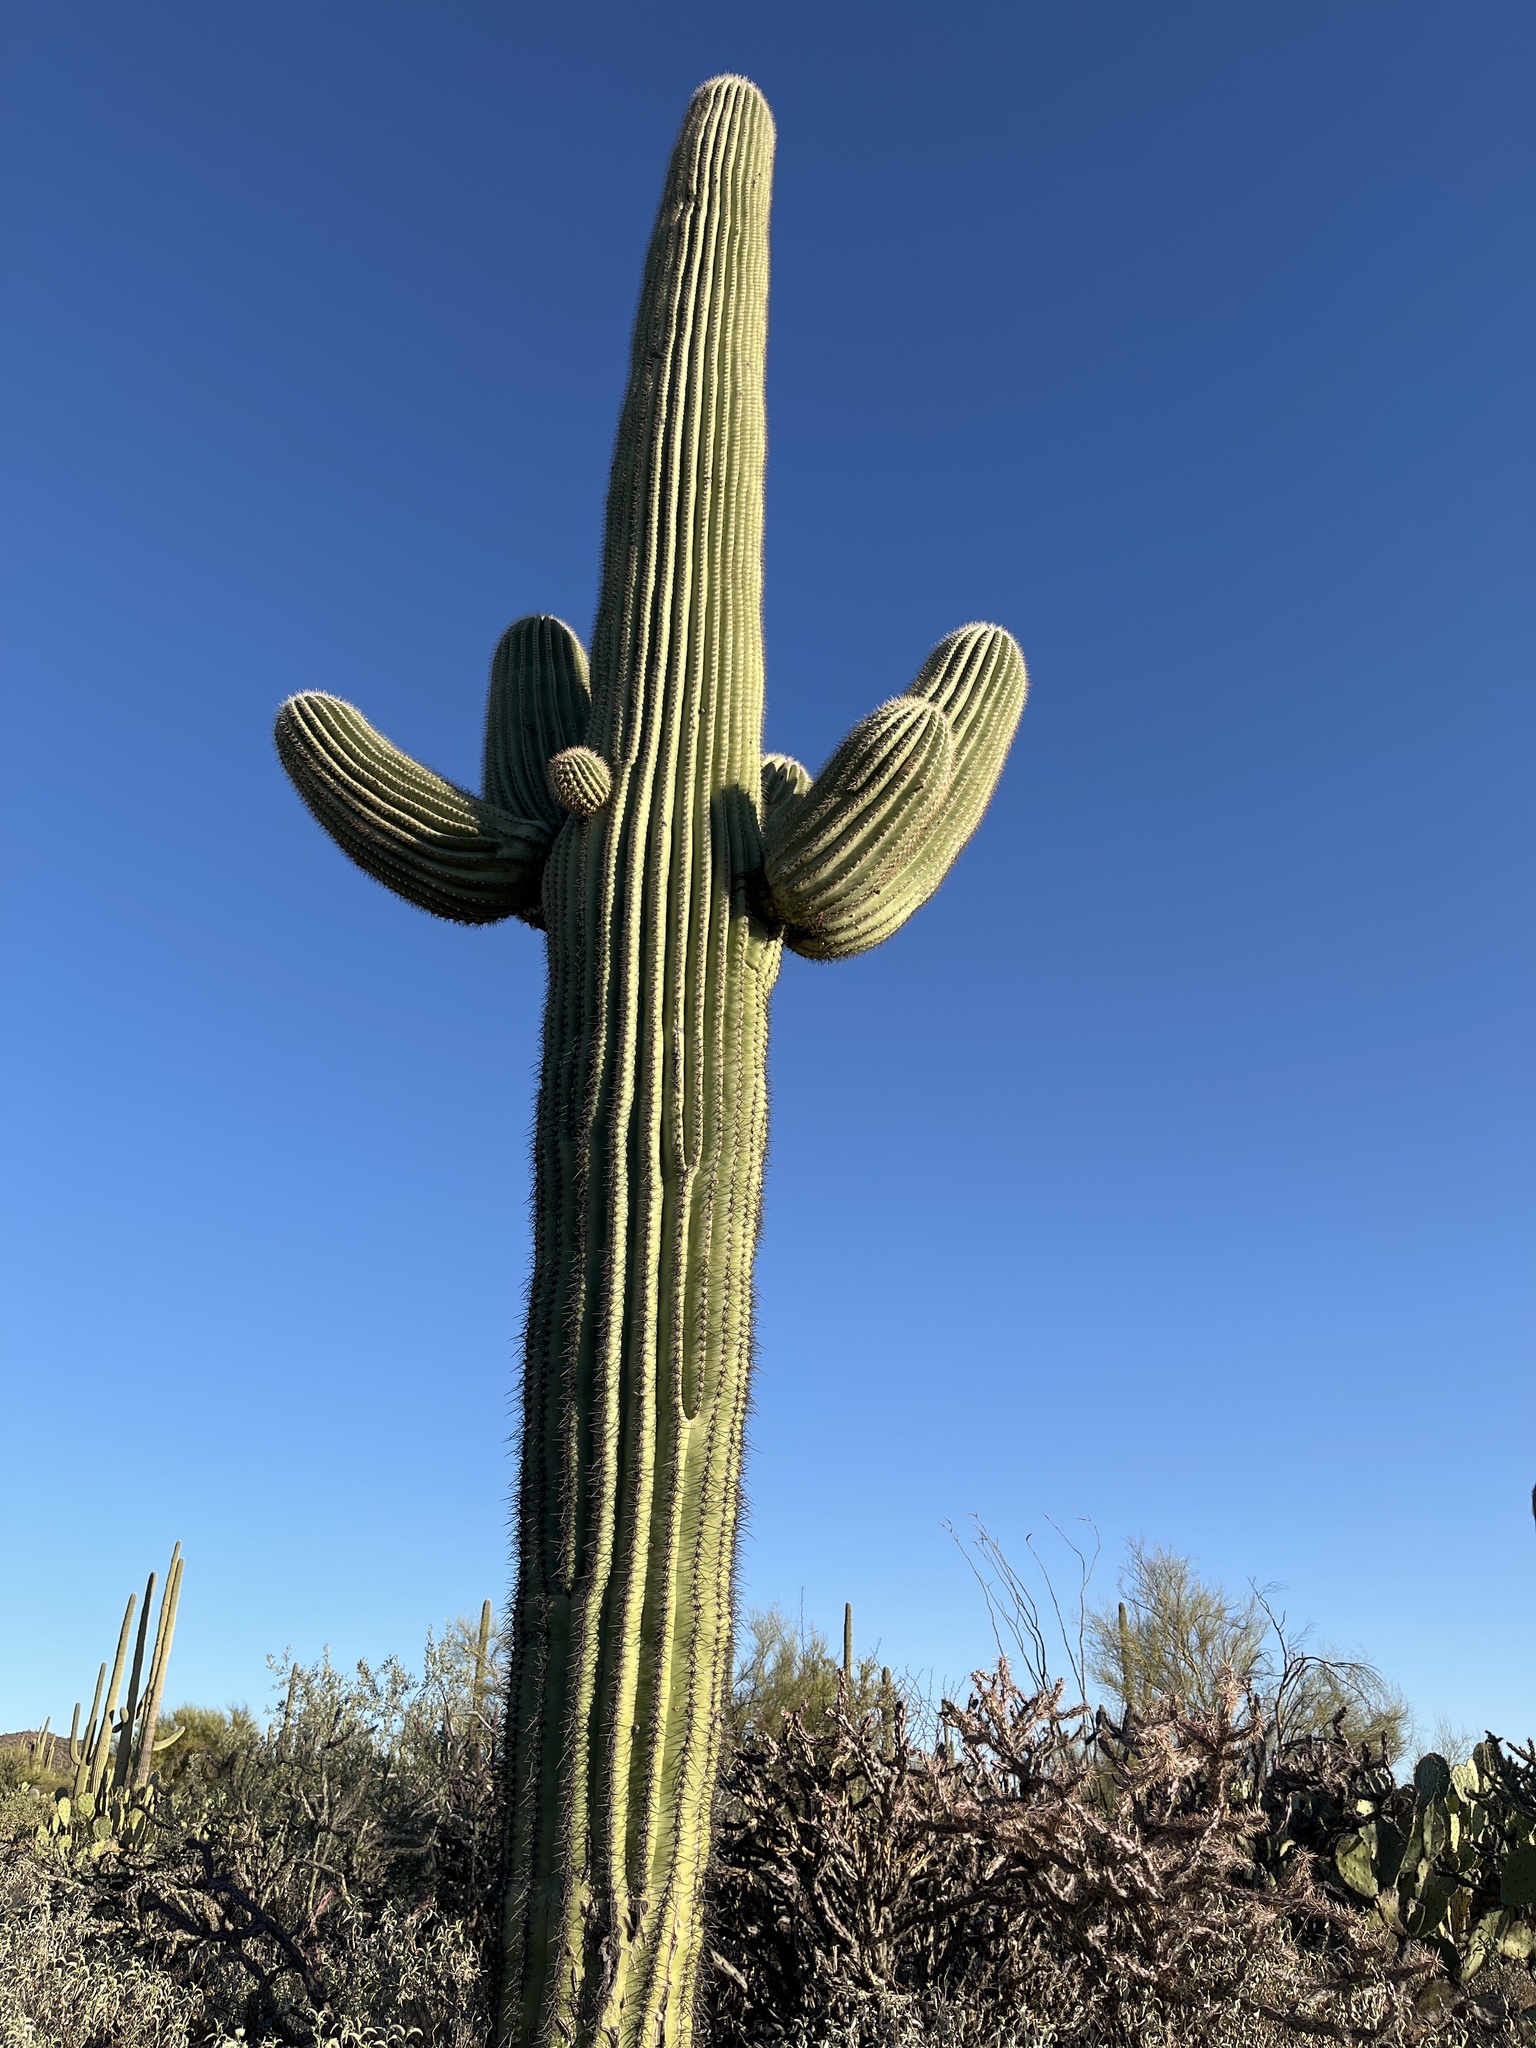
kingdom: Plantae
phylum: Tracheophyta
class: Magnoliopsida
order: Caryophyllales
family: Cactaceae
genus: Carnegiea
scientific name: Carnegiea gigantea
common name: Saguaro
